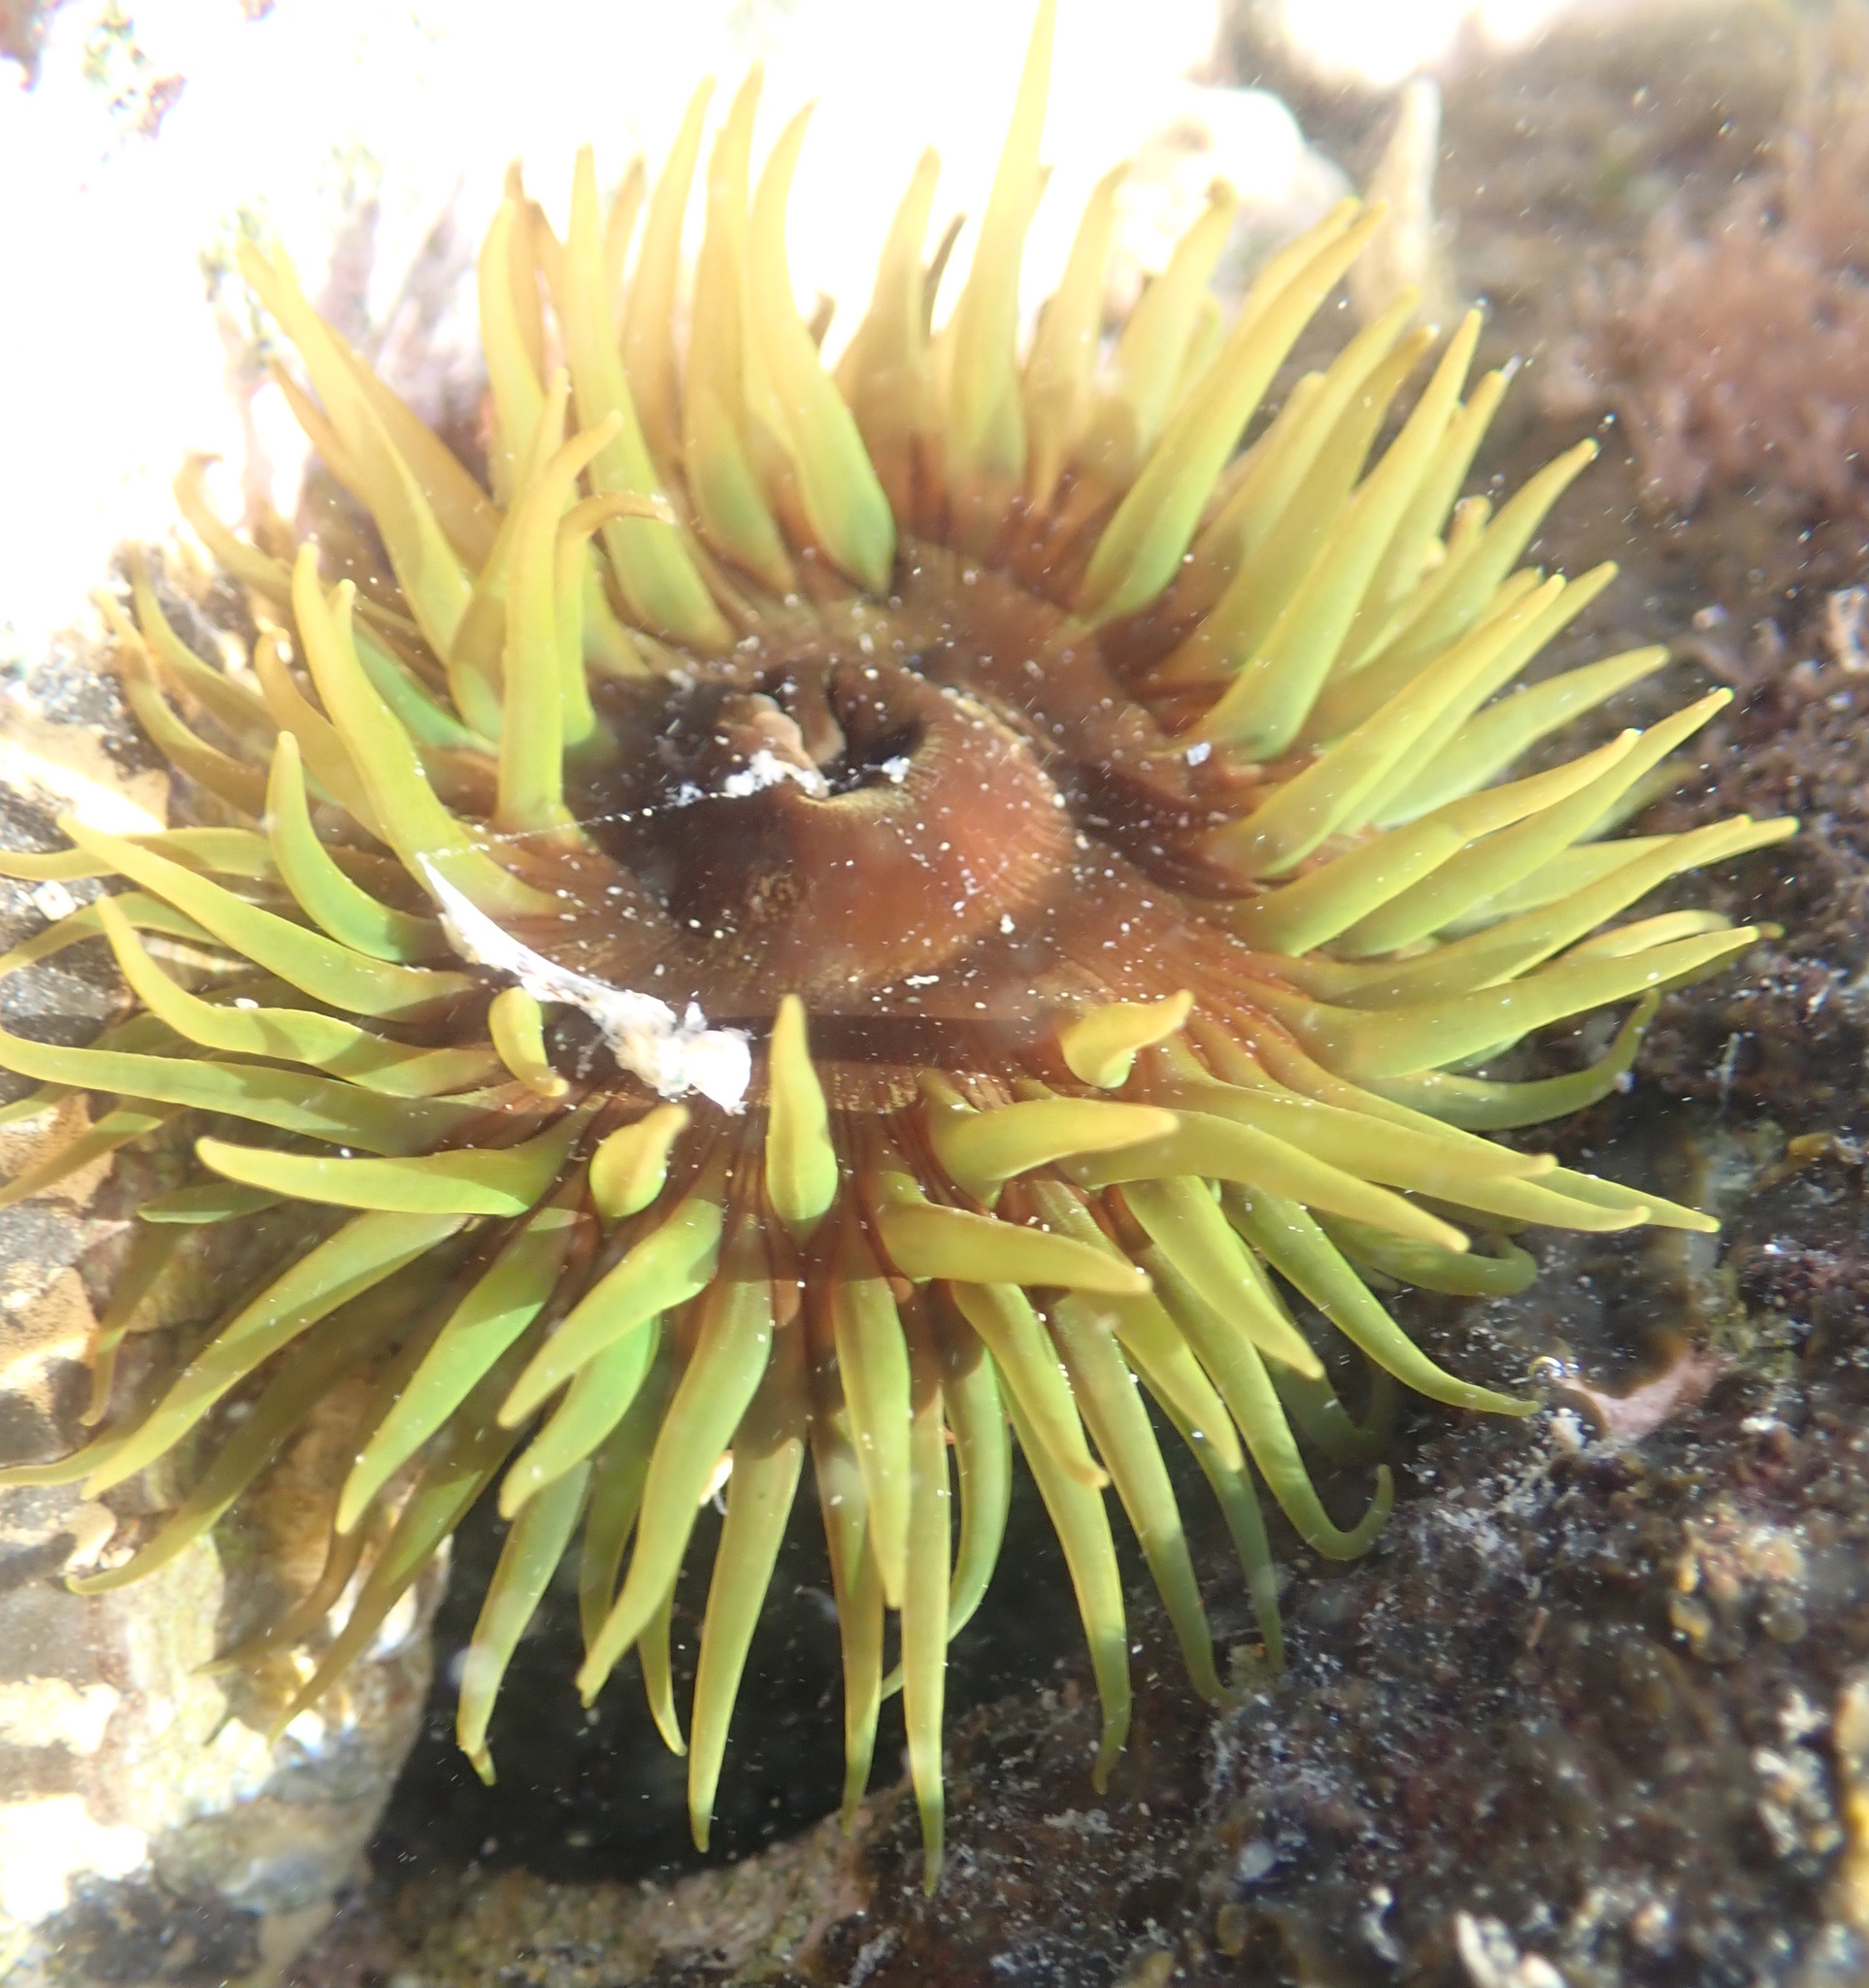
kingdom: Animalia
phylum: Cnidaria
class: Anthozoa
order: Actiniaria
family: Actiniidae
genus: Aulactinia
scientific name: Aulactinia veratra
